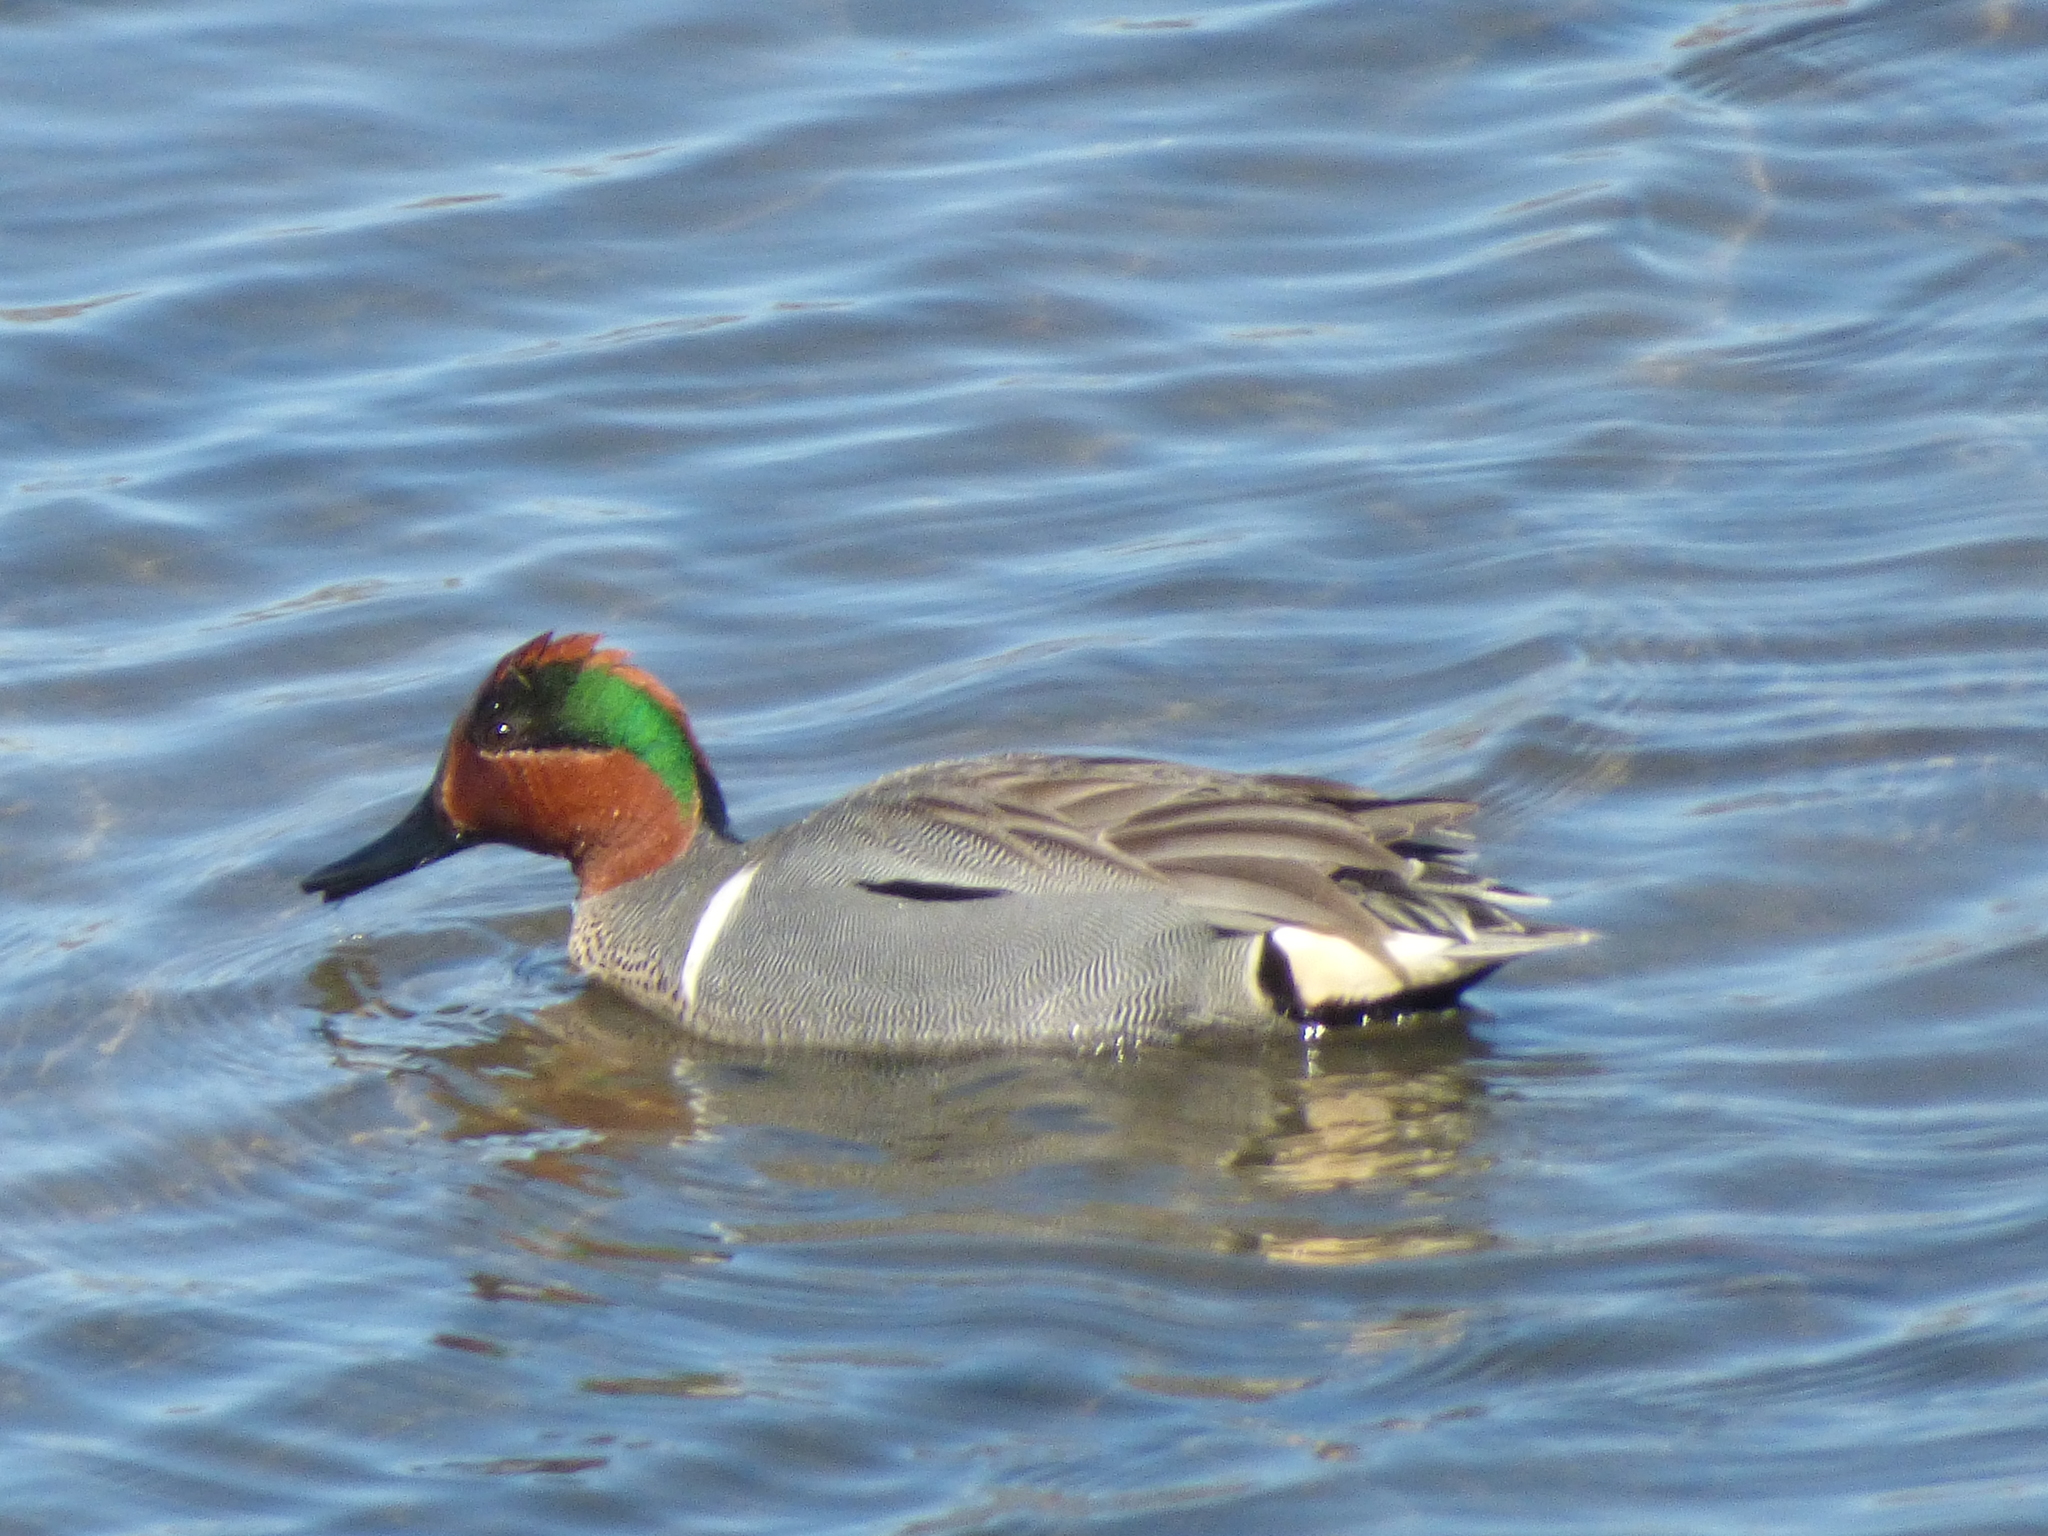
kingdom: Animalia
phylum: Chordata
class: Aves
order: Anseriformes
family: Anatidae
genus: Anas
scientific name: Anas crecca
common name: Eurasian teal
